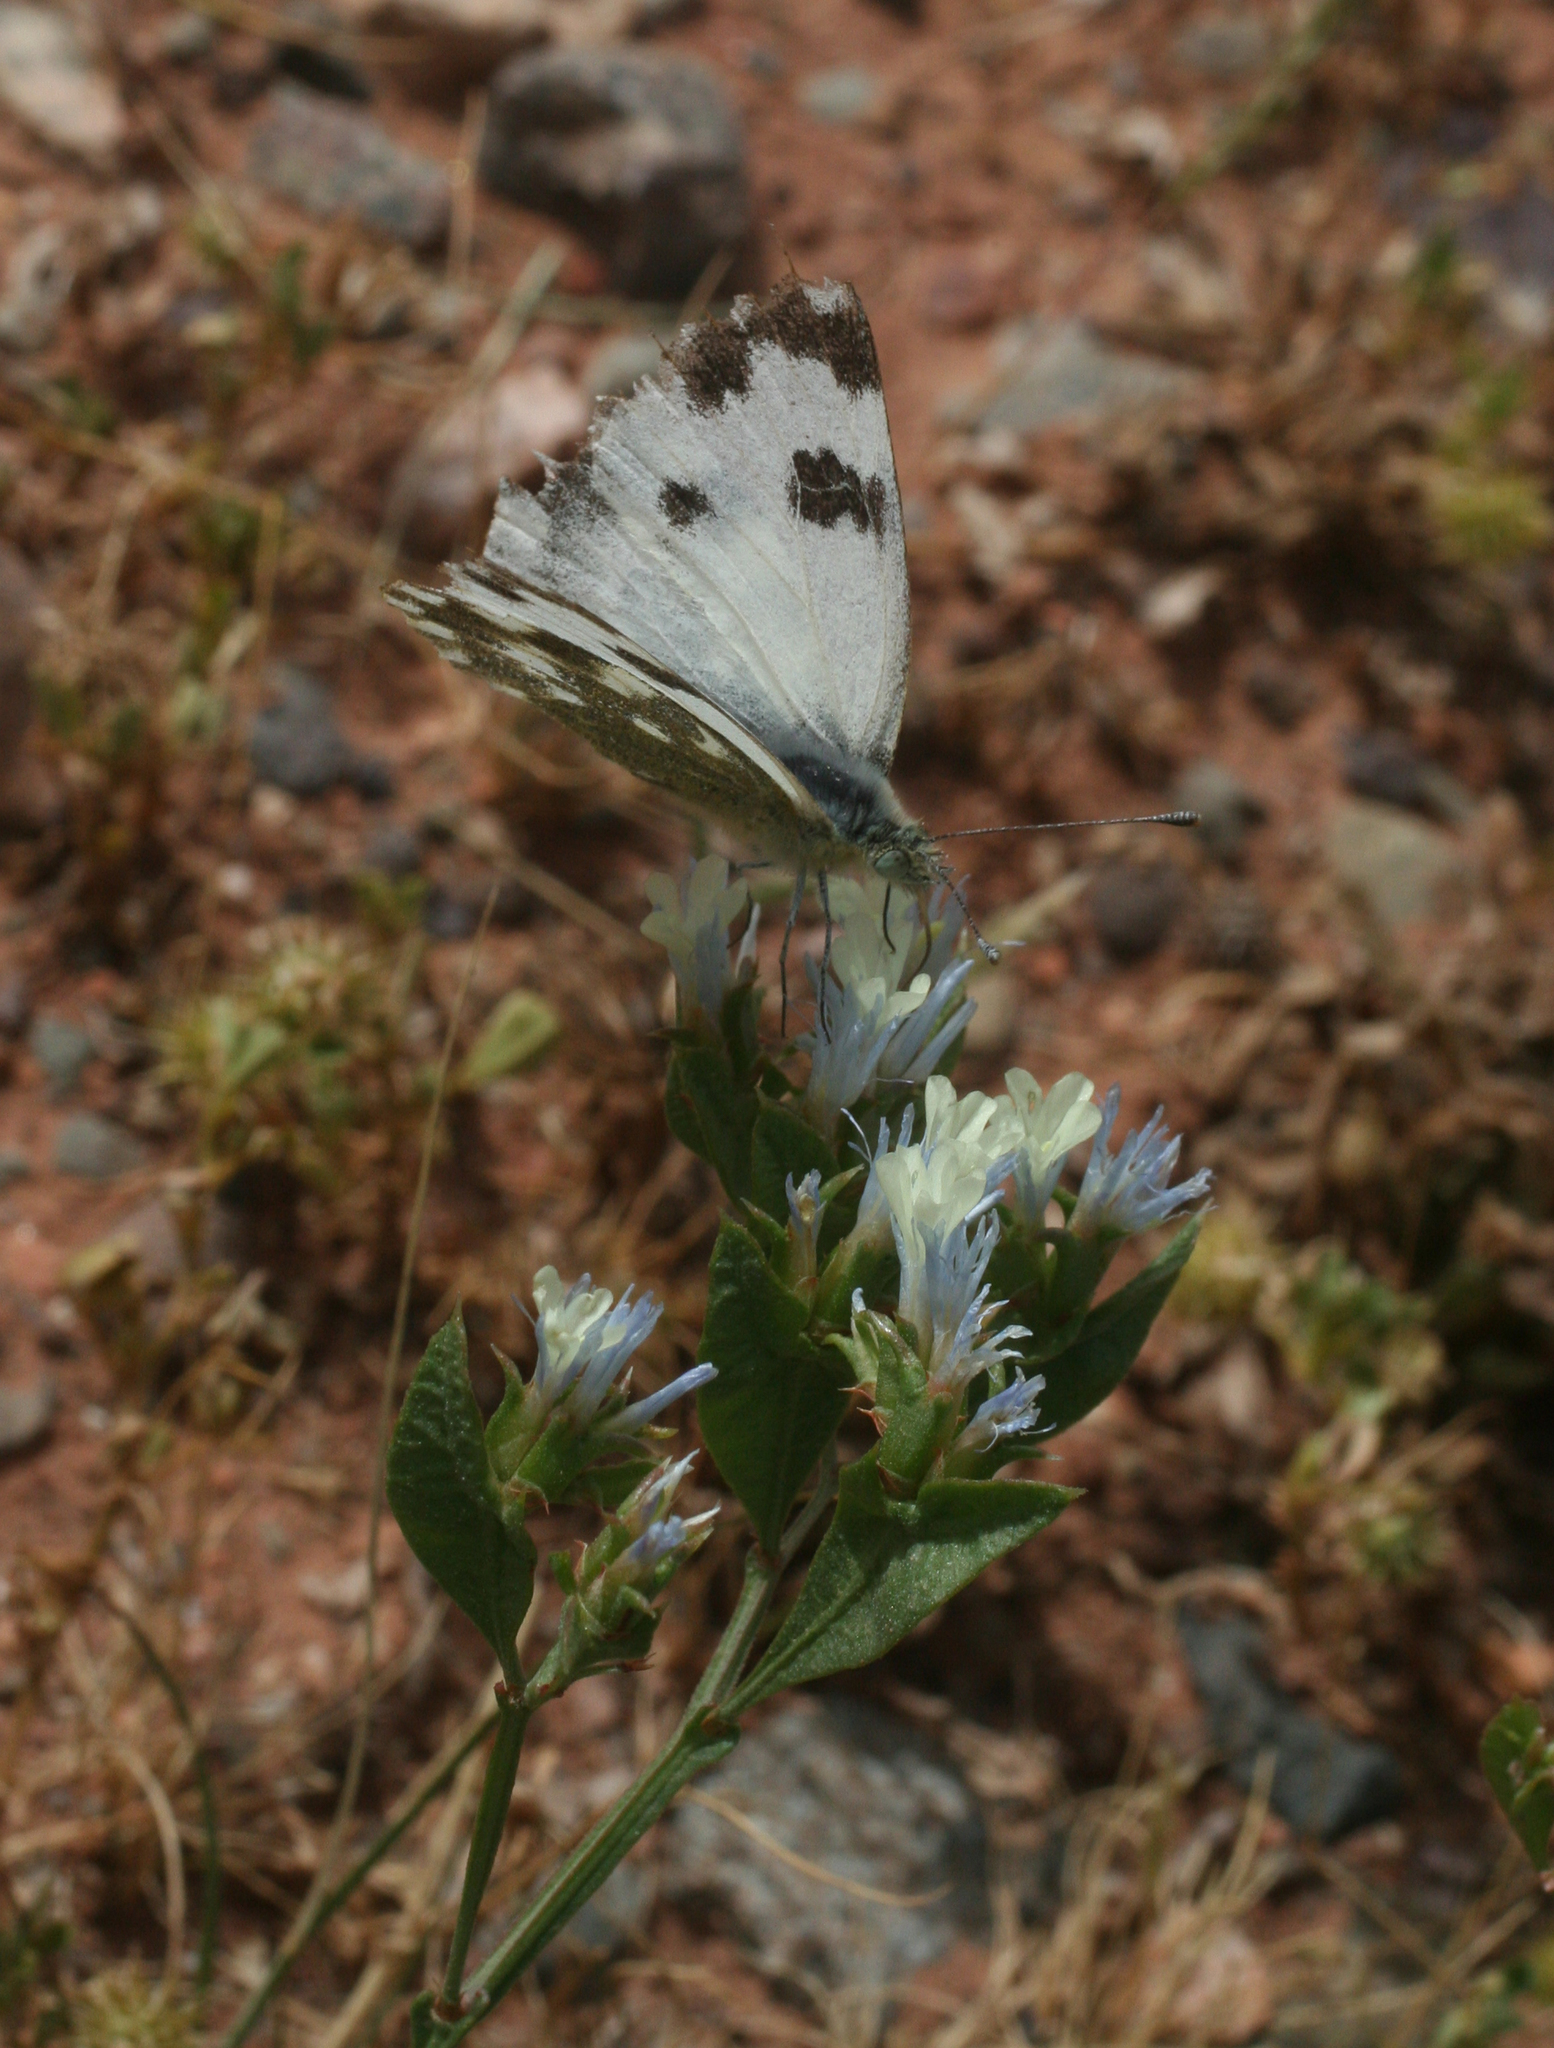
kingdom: Animalia
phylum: Arthropoda
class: Insecta
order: Lepidoptera
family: Pieridae
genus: Pontia
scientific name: Pontia daplidice
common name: Bath white
